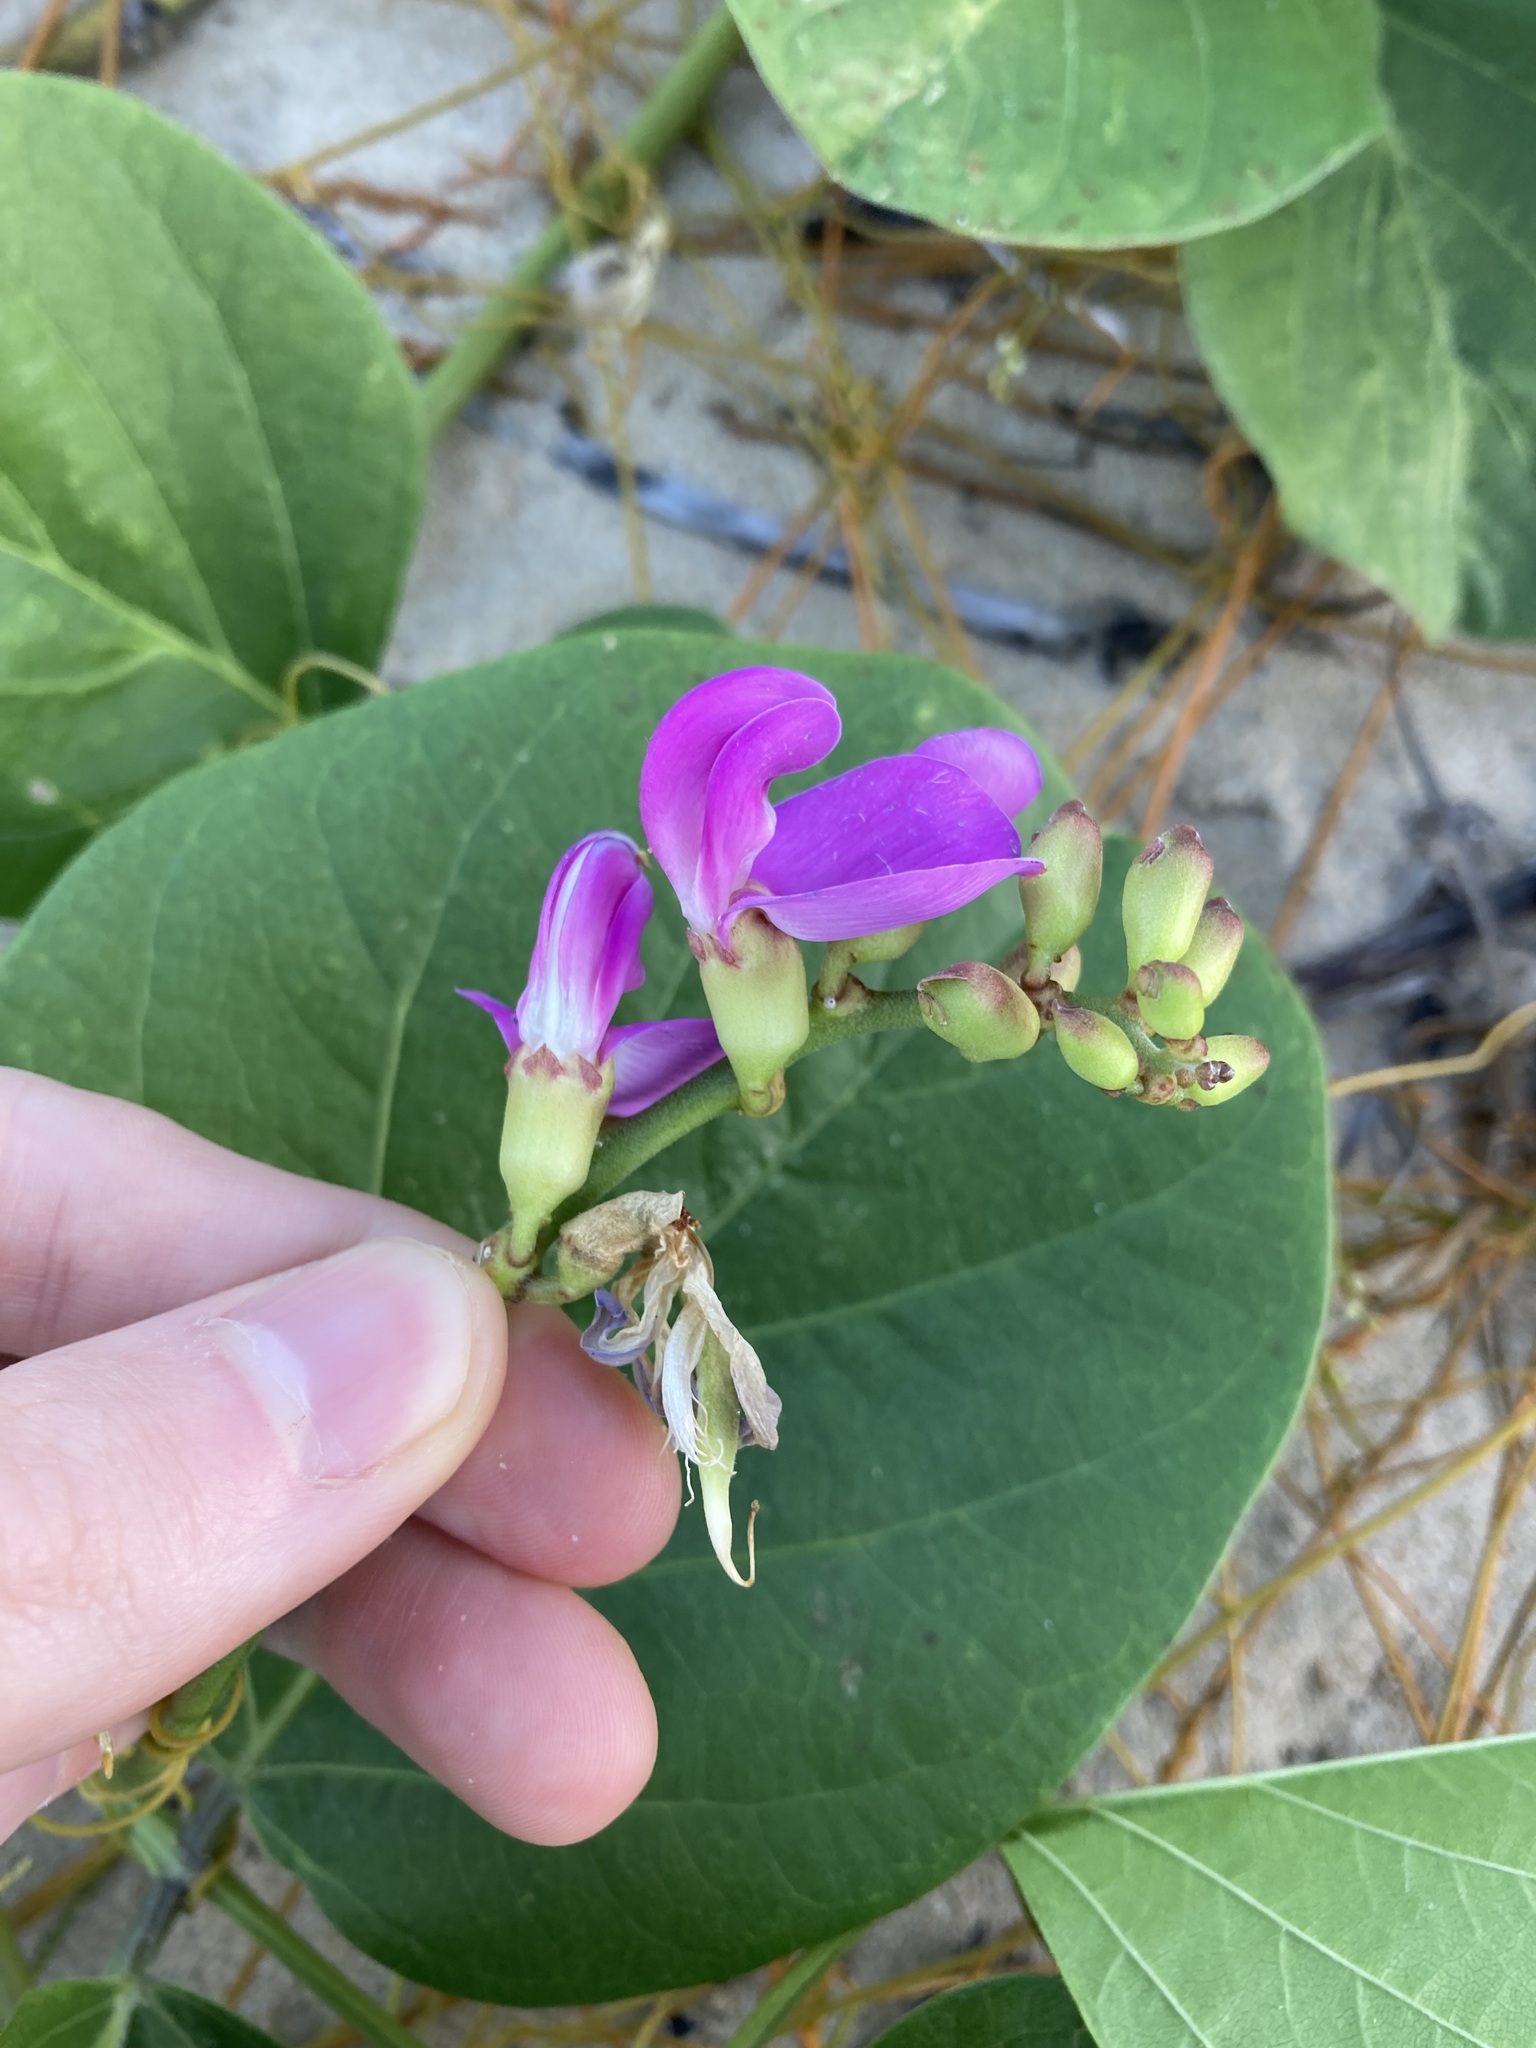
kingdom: Plantae
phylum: Tracheophyta
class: Magnoliopsida
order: Fabales
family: Fabaceae
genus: Canavalia
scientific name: Canavalia rosea
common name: Beach-bean
